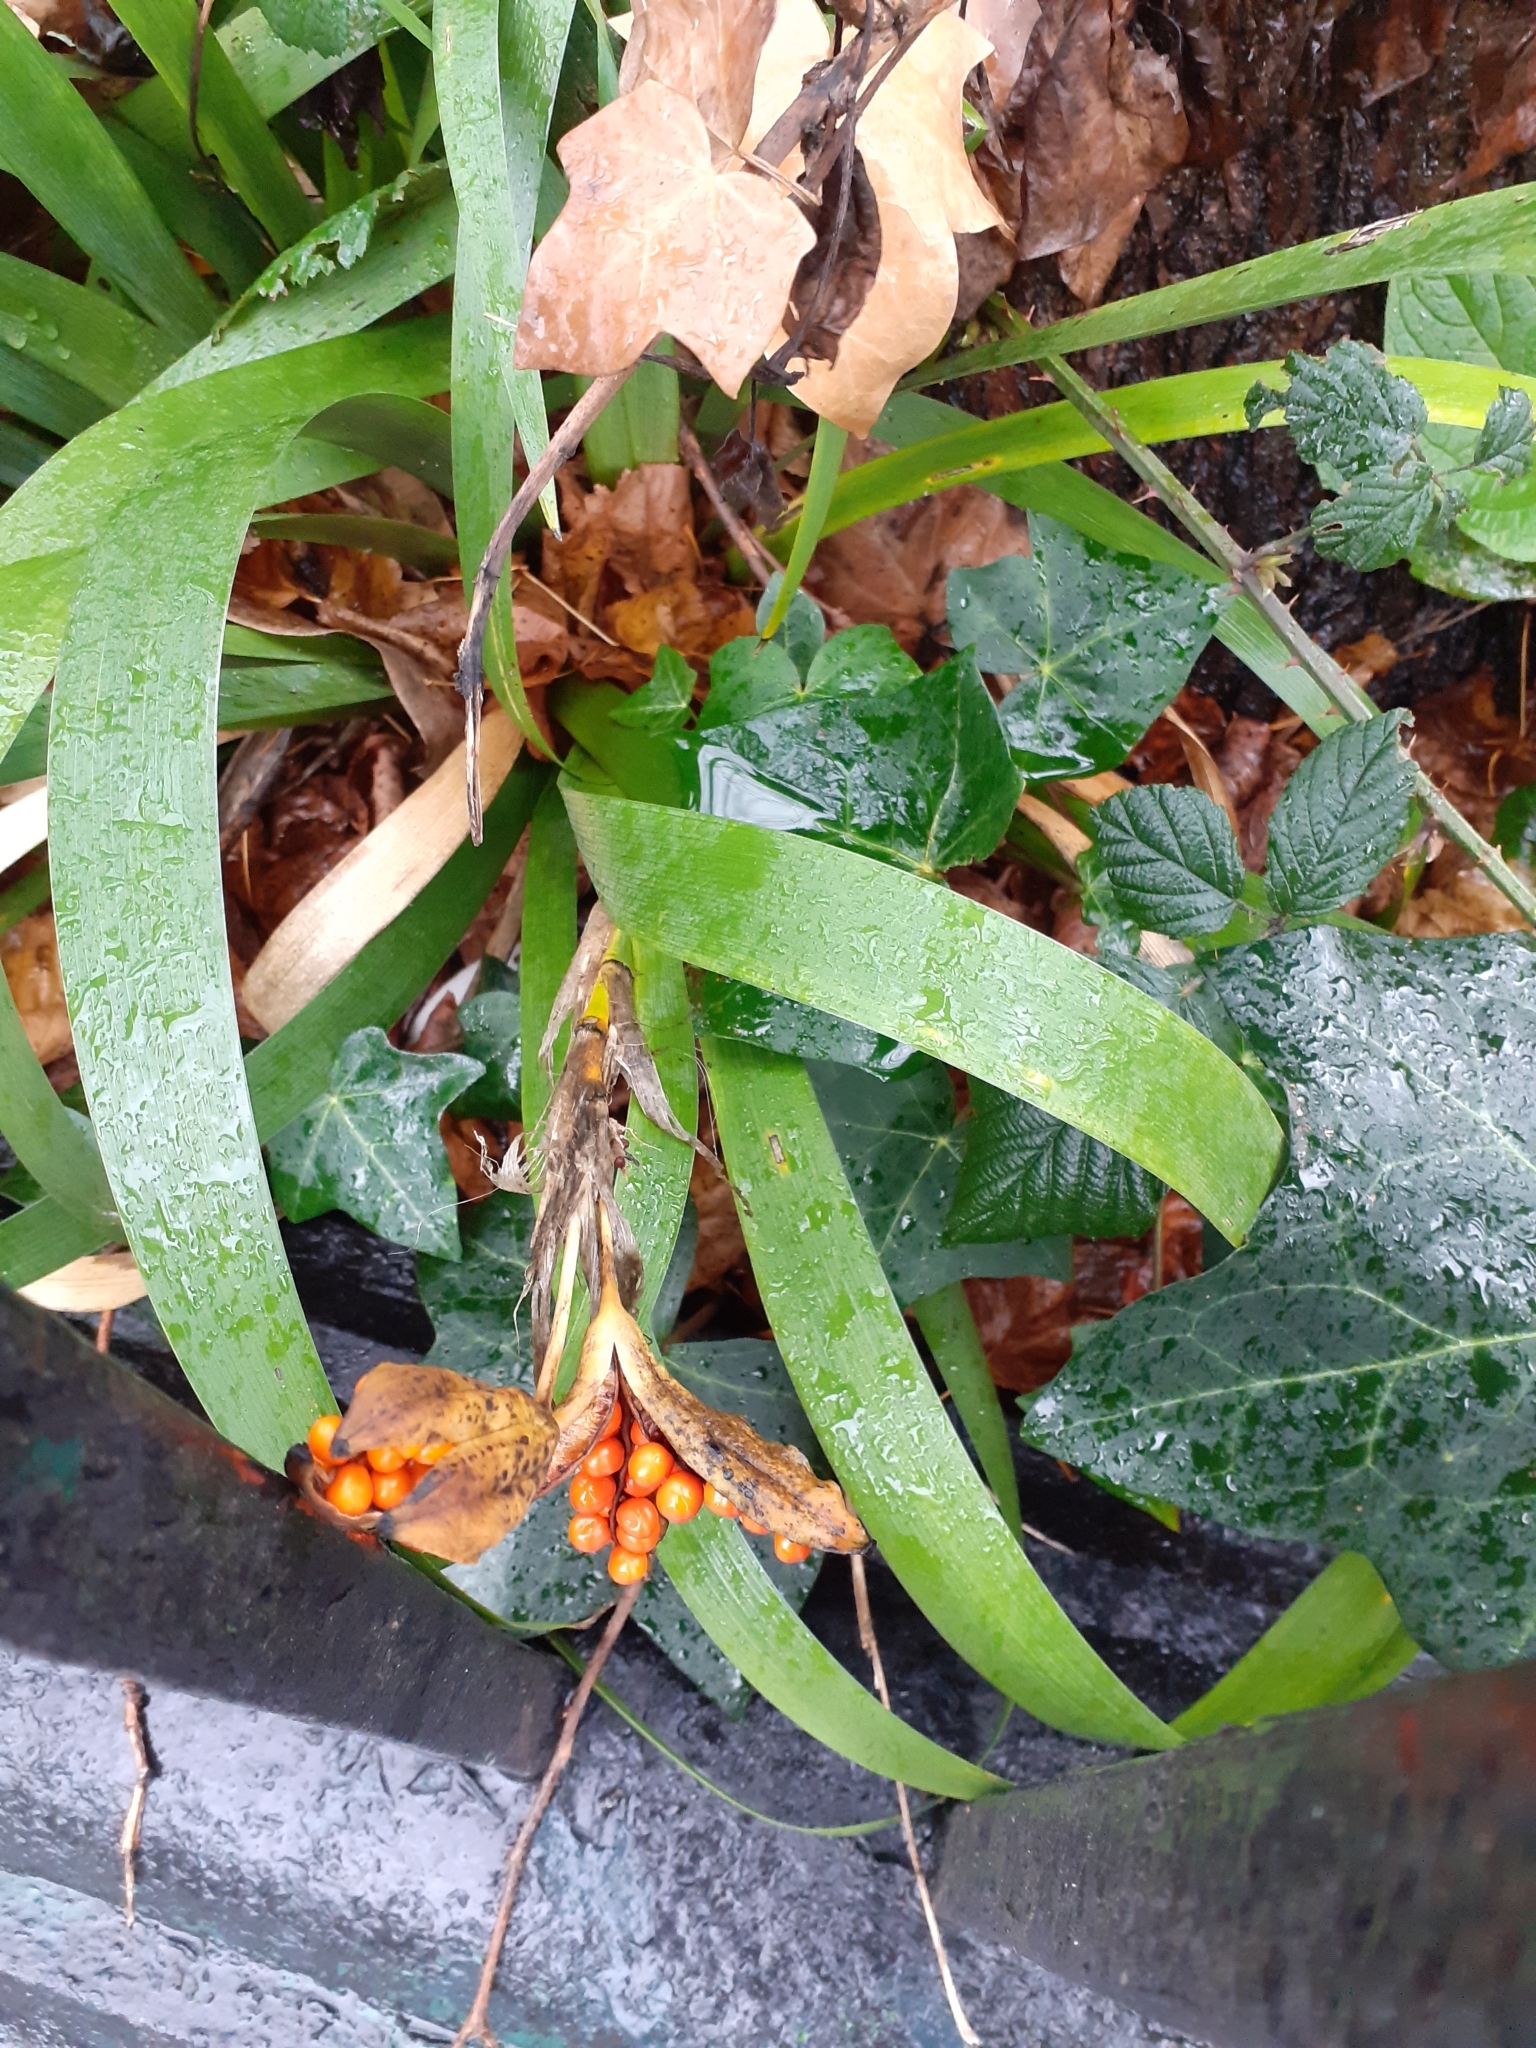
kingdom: Plantae
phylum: Tracheophyta
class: Liliopsida
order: Asparagales
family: Iridaceae
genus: Iris
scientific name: Iris foetidissima
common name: Stinking iris
